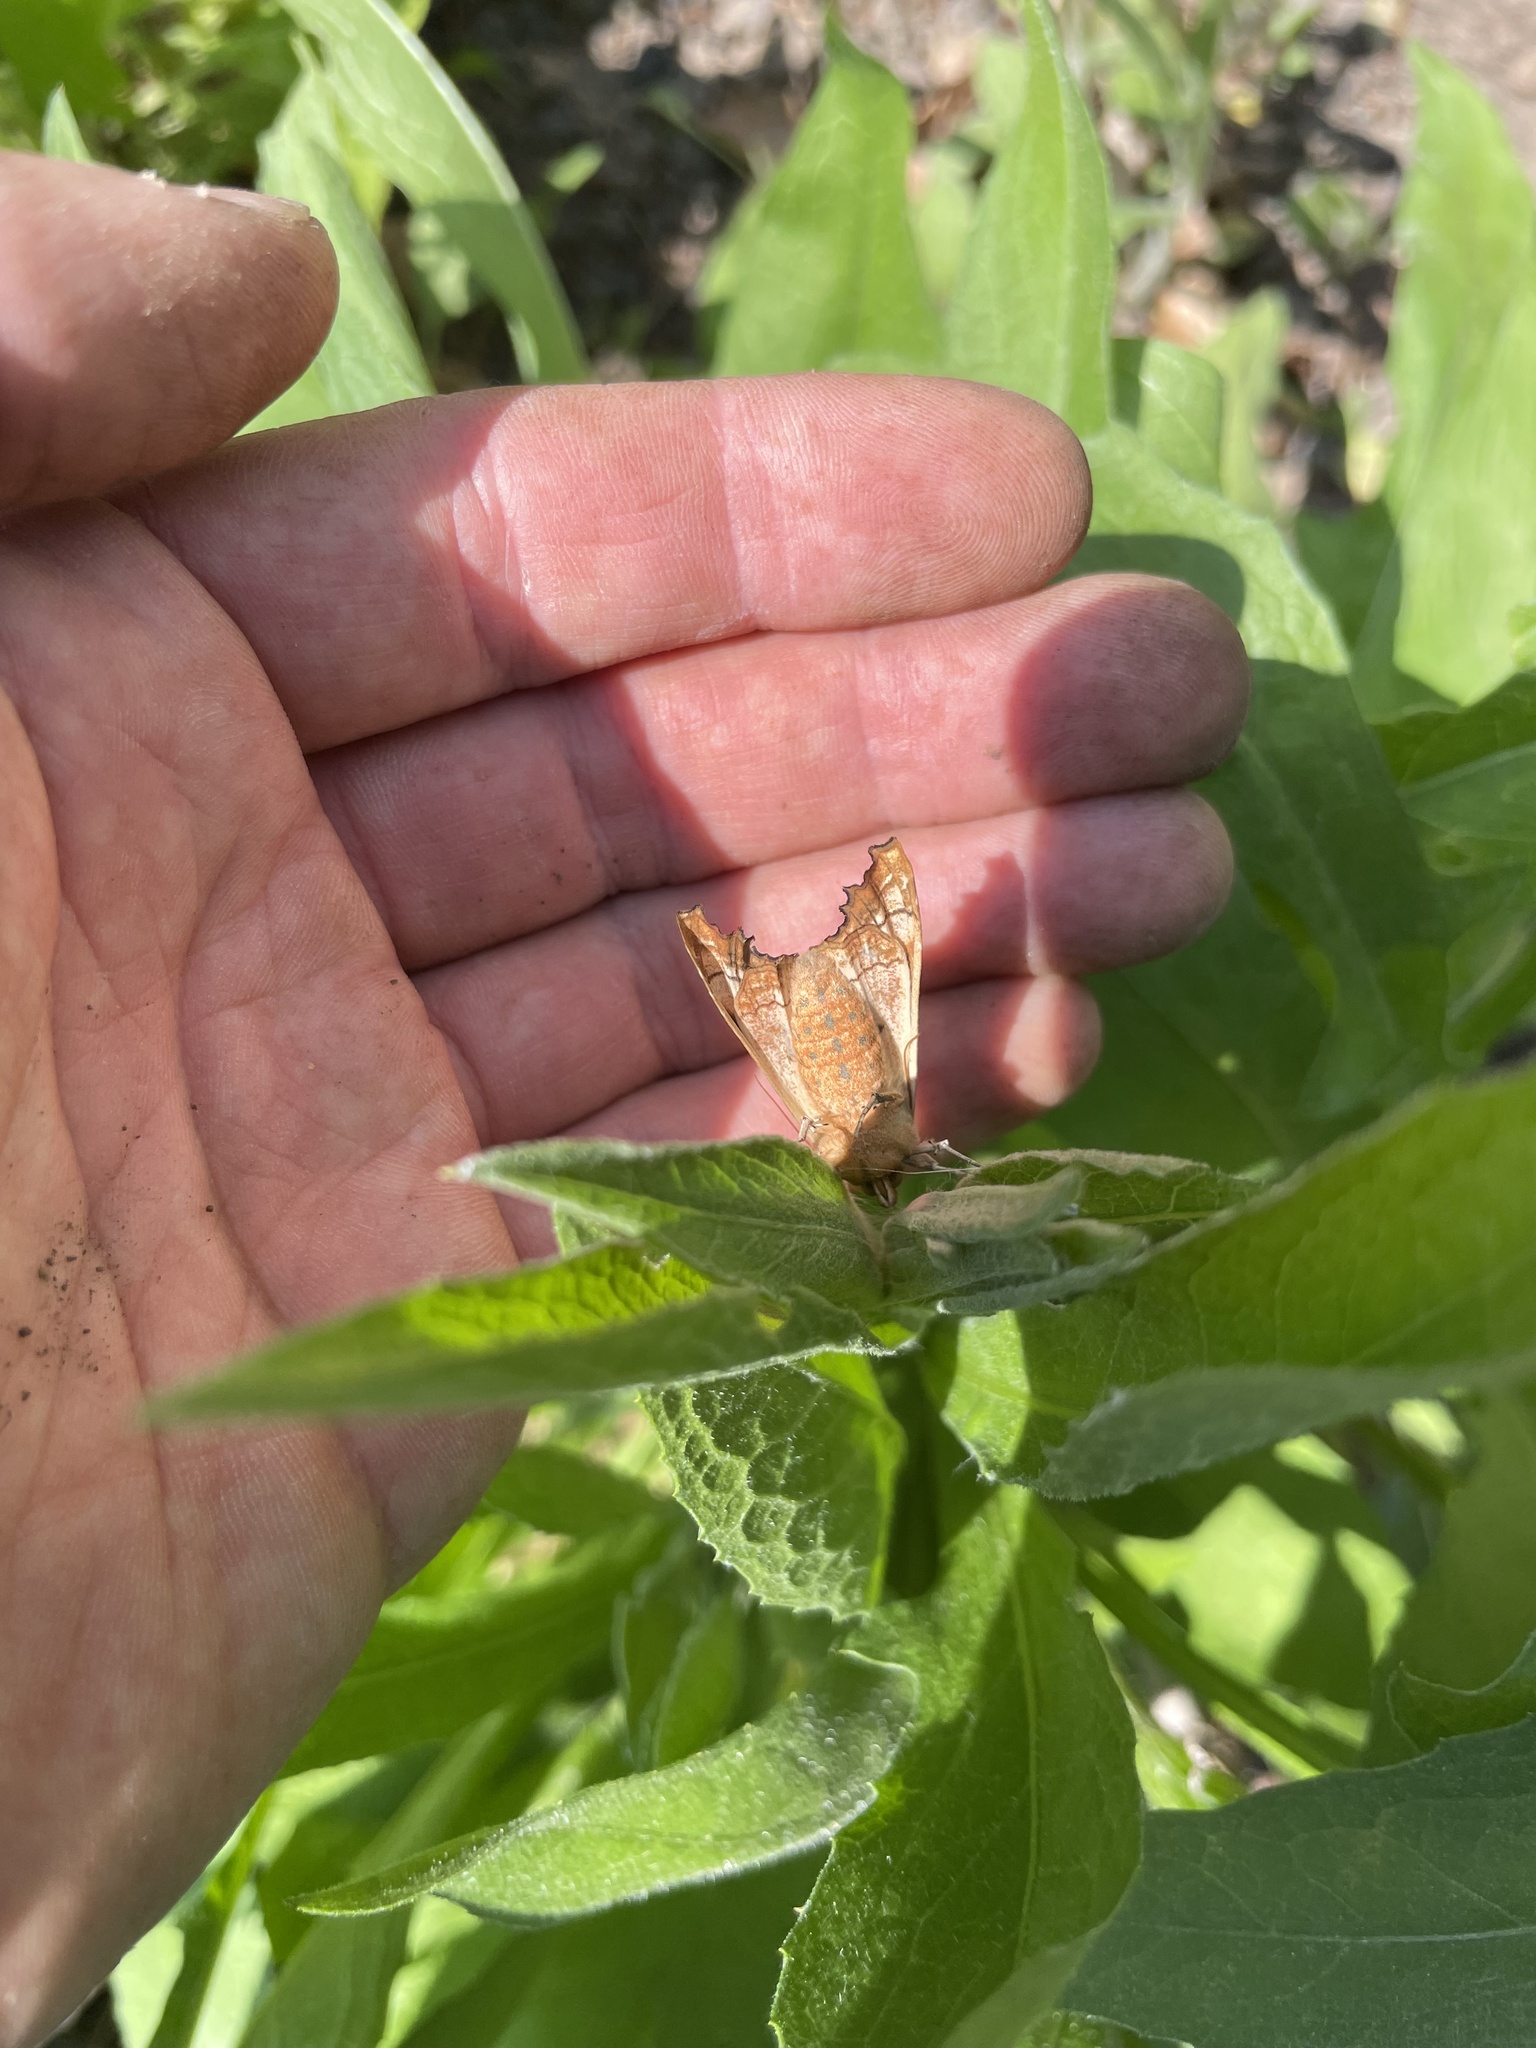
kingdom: Animalia
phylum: Arthropoda
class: Insecta
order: Lepidoptera
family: Noctuidae
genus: Phlogophora
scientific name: Phlogophora meticulosa
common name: Angle shades
